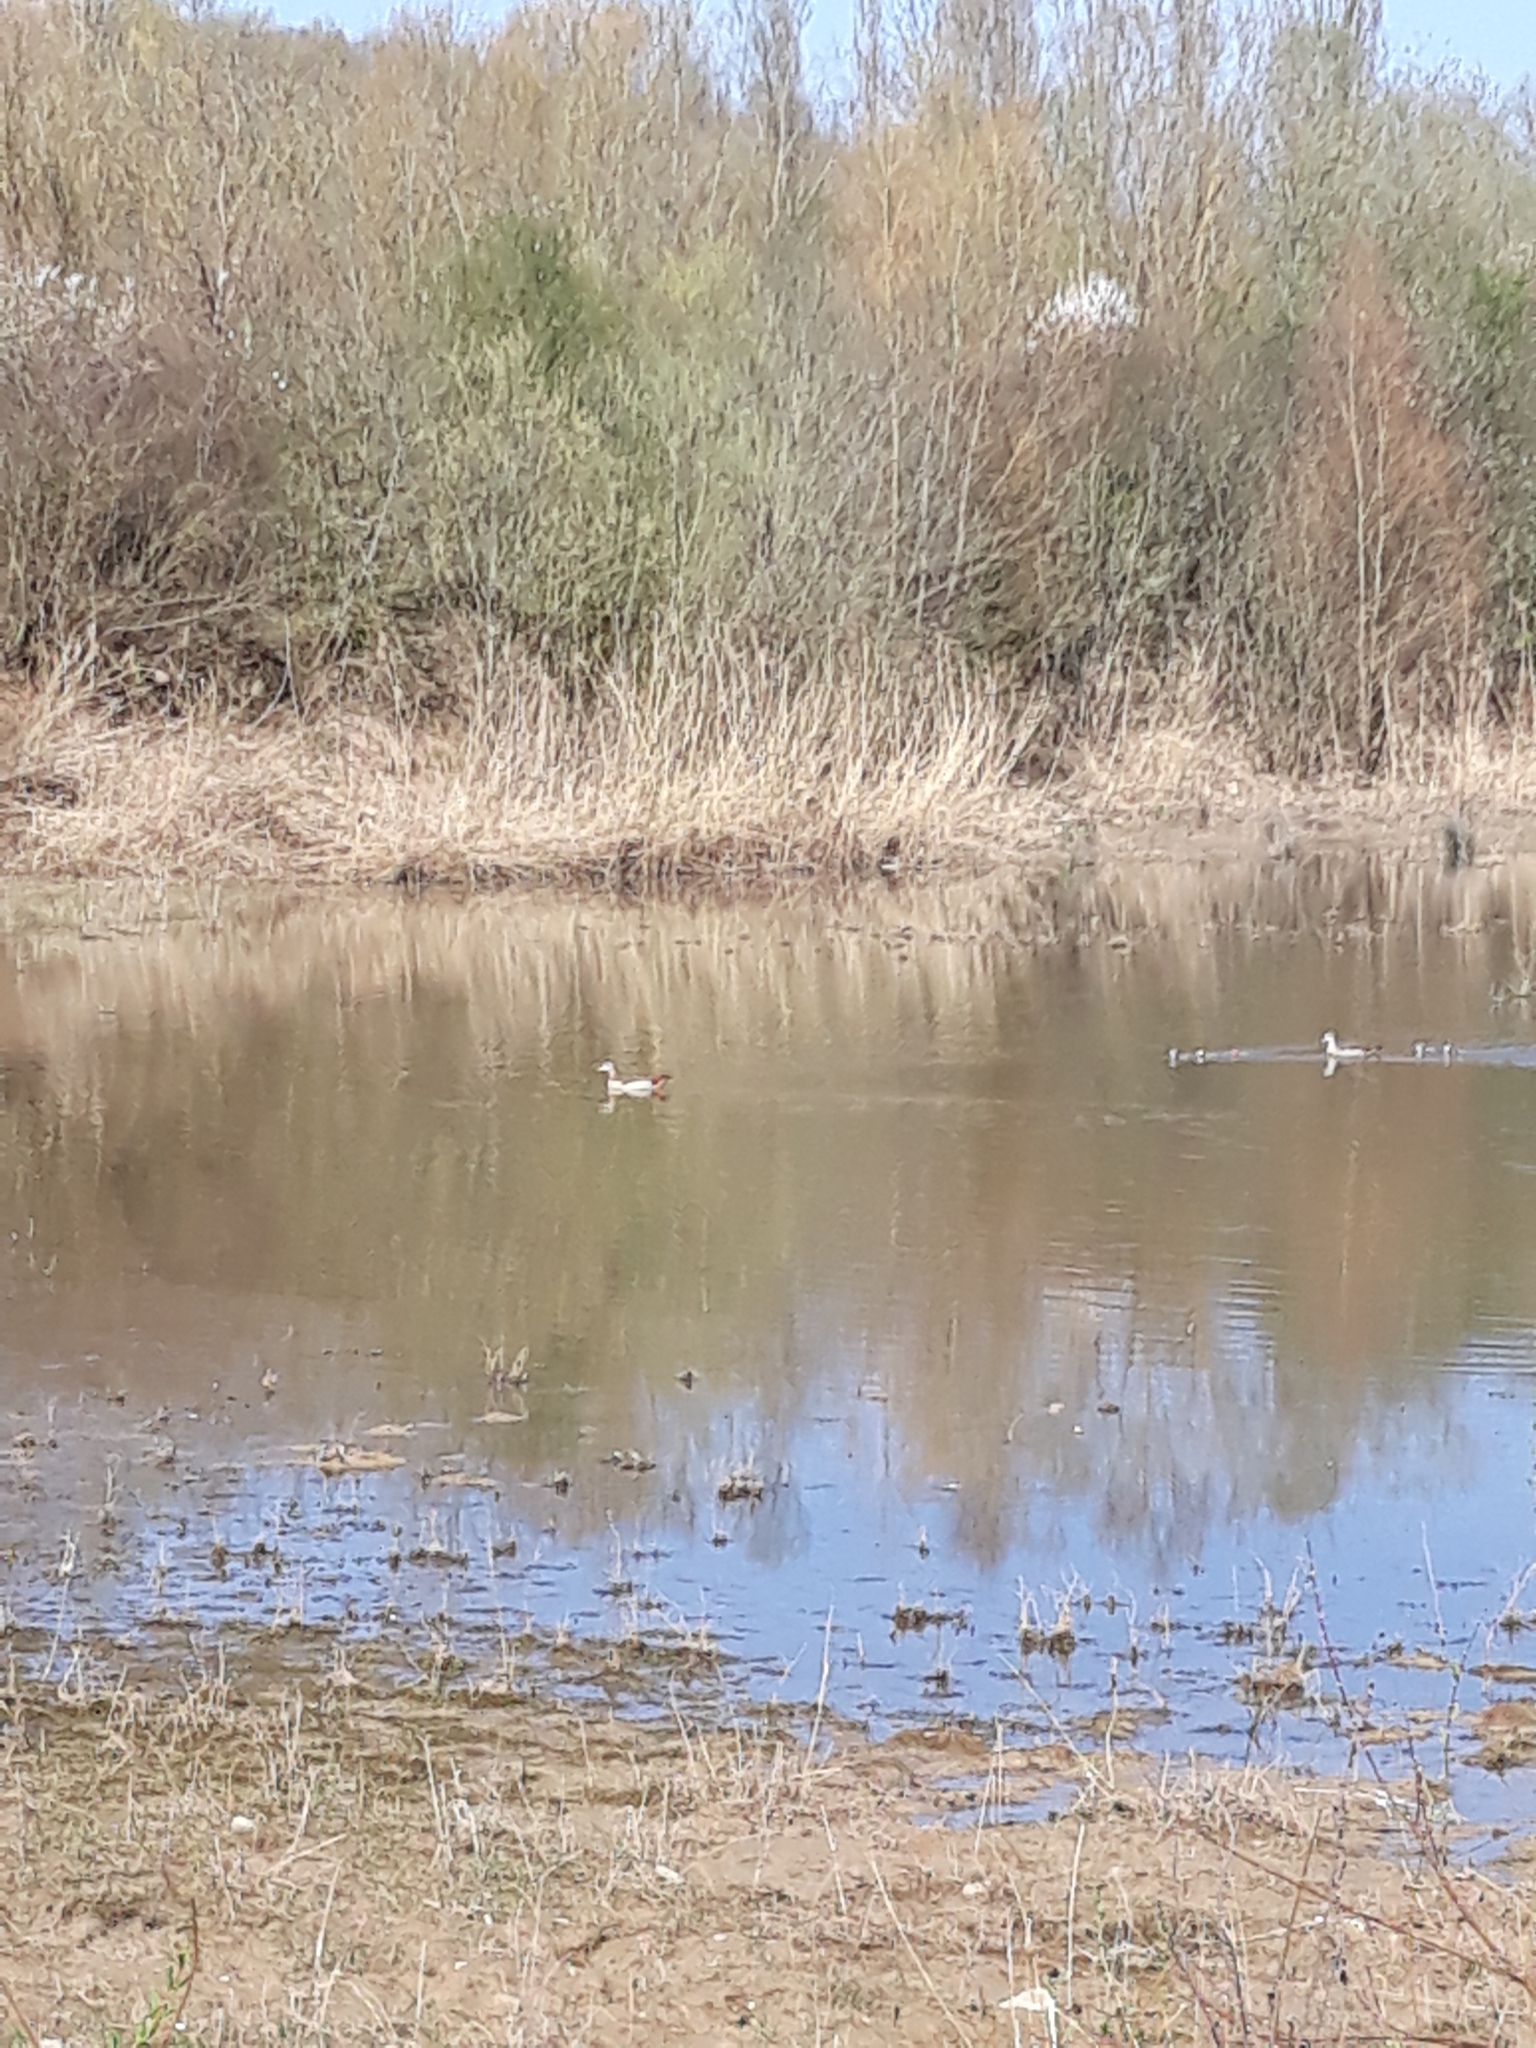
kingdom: Animalia
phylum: Chordata
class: Aves
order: Anseriformes
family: Anatidae
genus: Alopochen
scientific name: Alopochen aegyptiaca
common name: Egyptian goose
